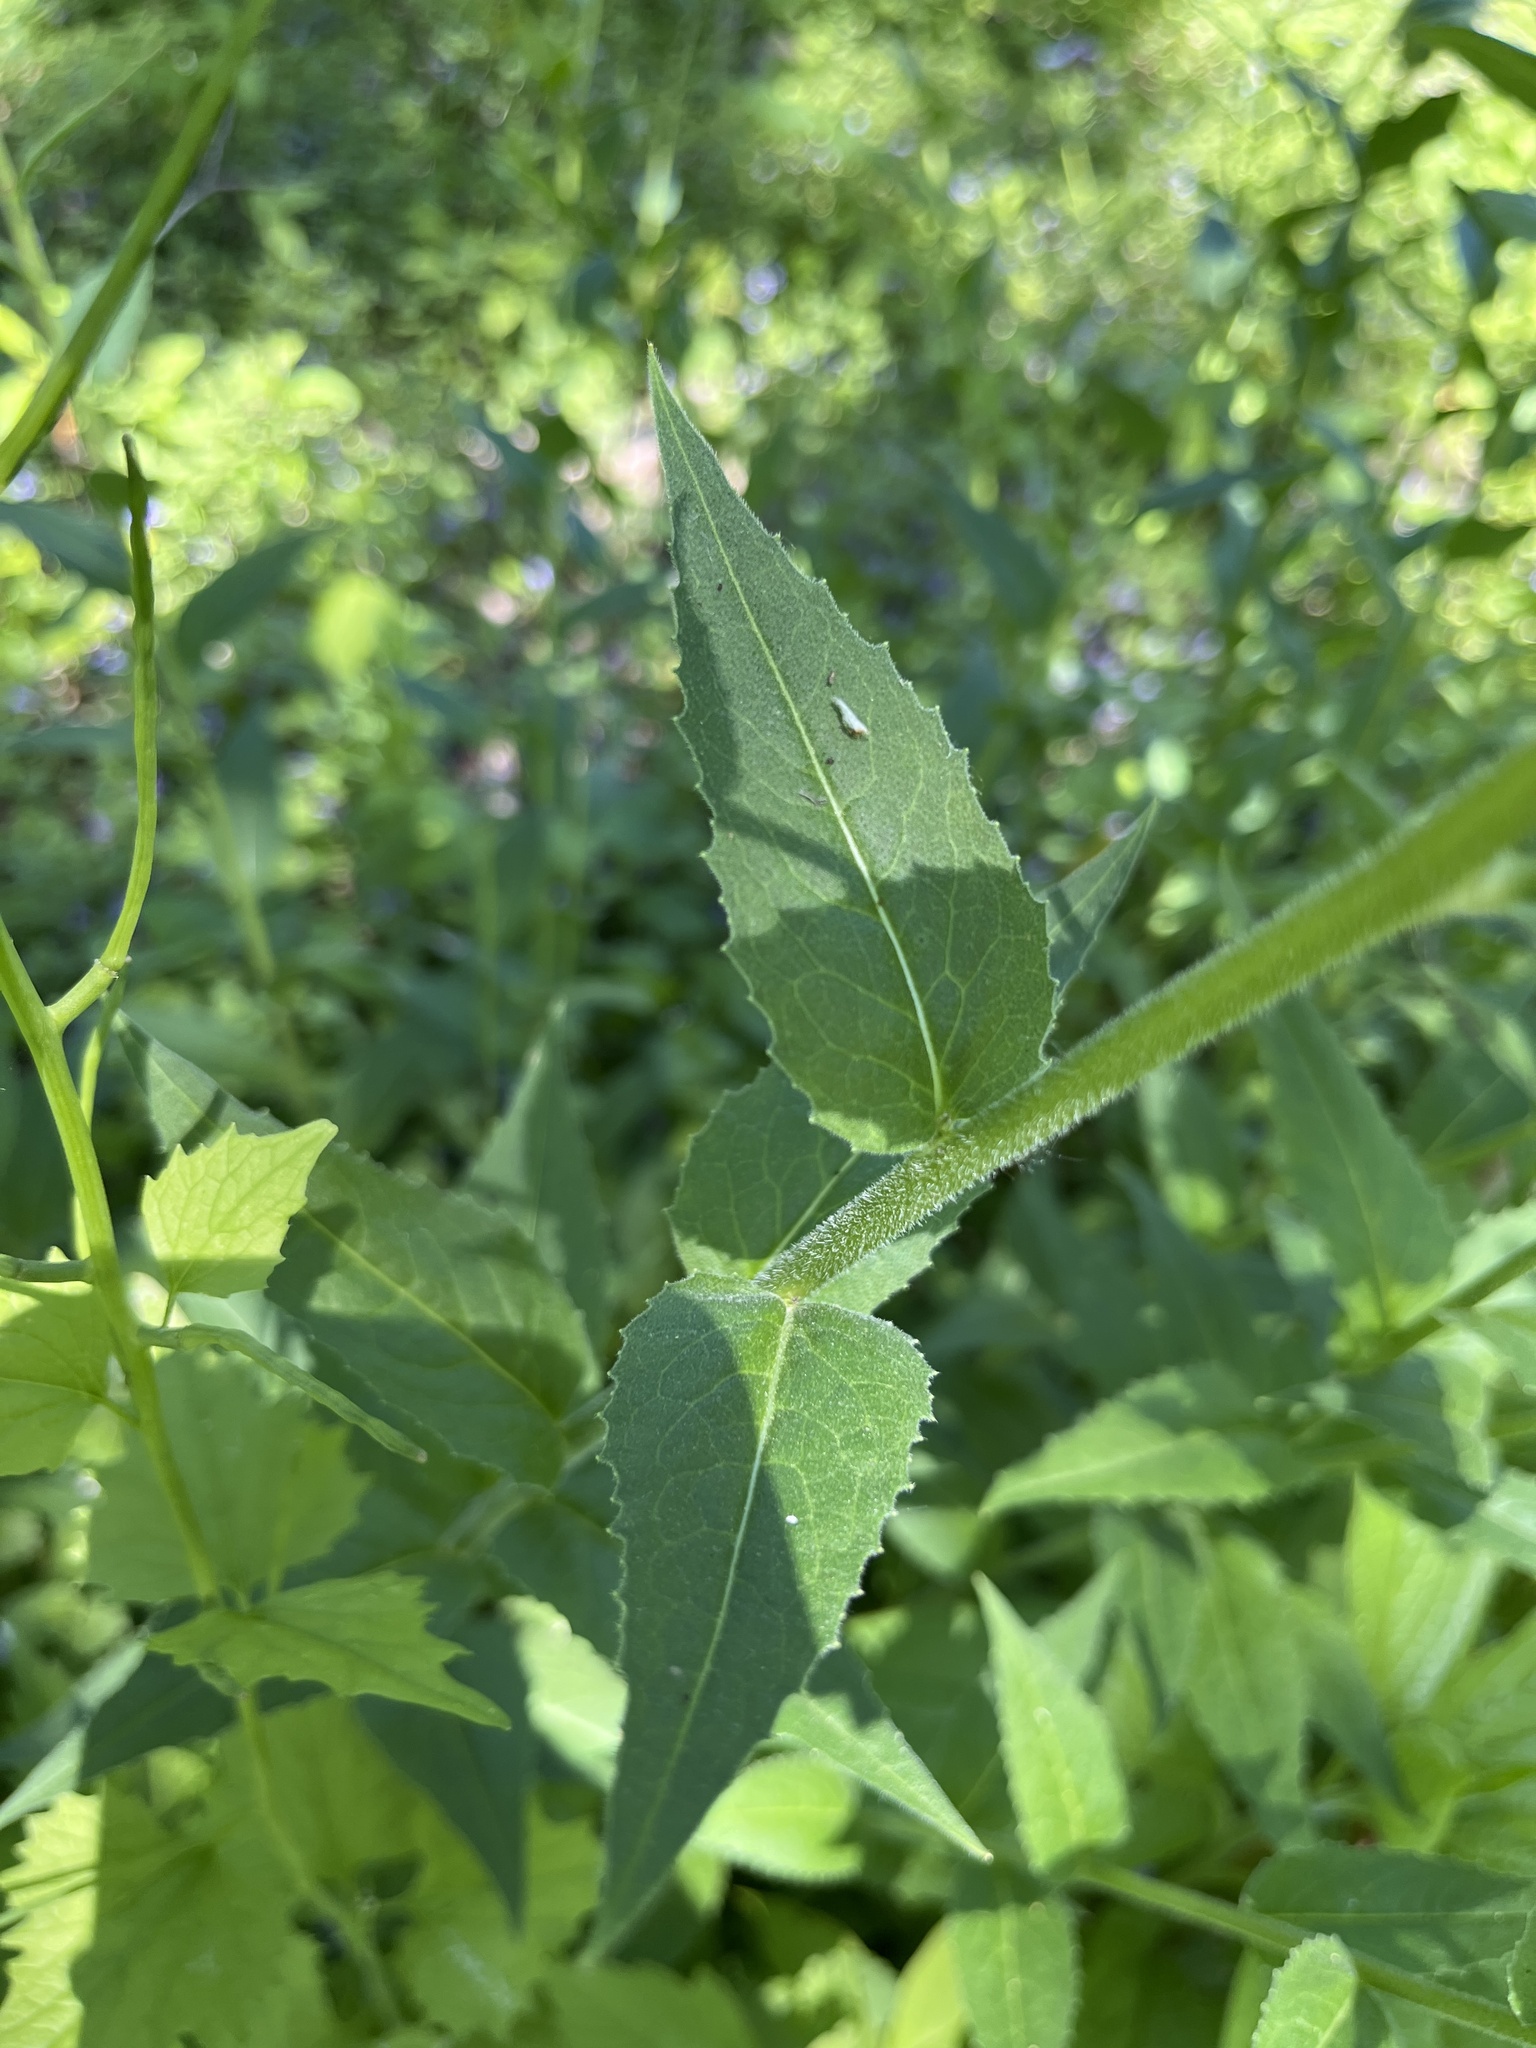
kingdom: Plantae
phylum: Tracheophyta
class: Magnoliopsida
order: Brassicales
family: Brassicaceae
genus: Hesperis
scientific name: Hesperis matronalis
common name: Dame's-violet
